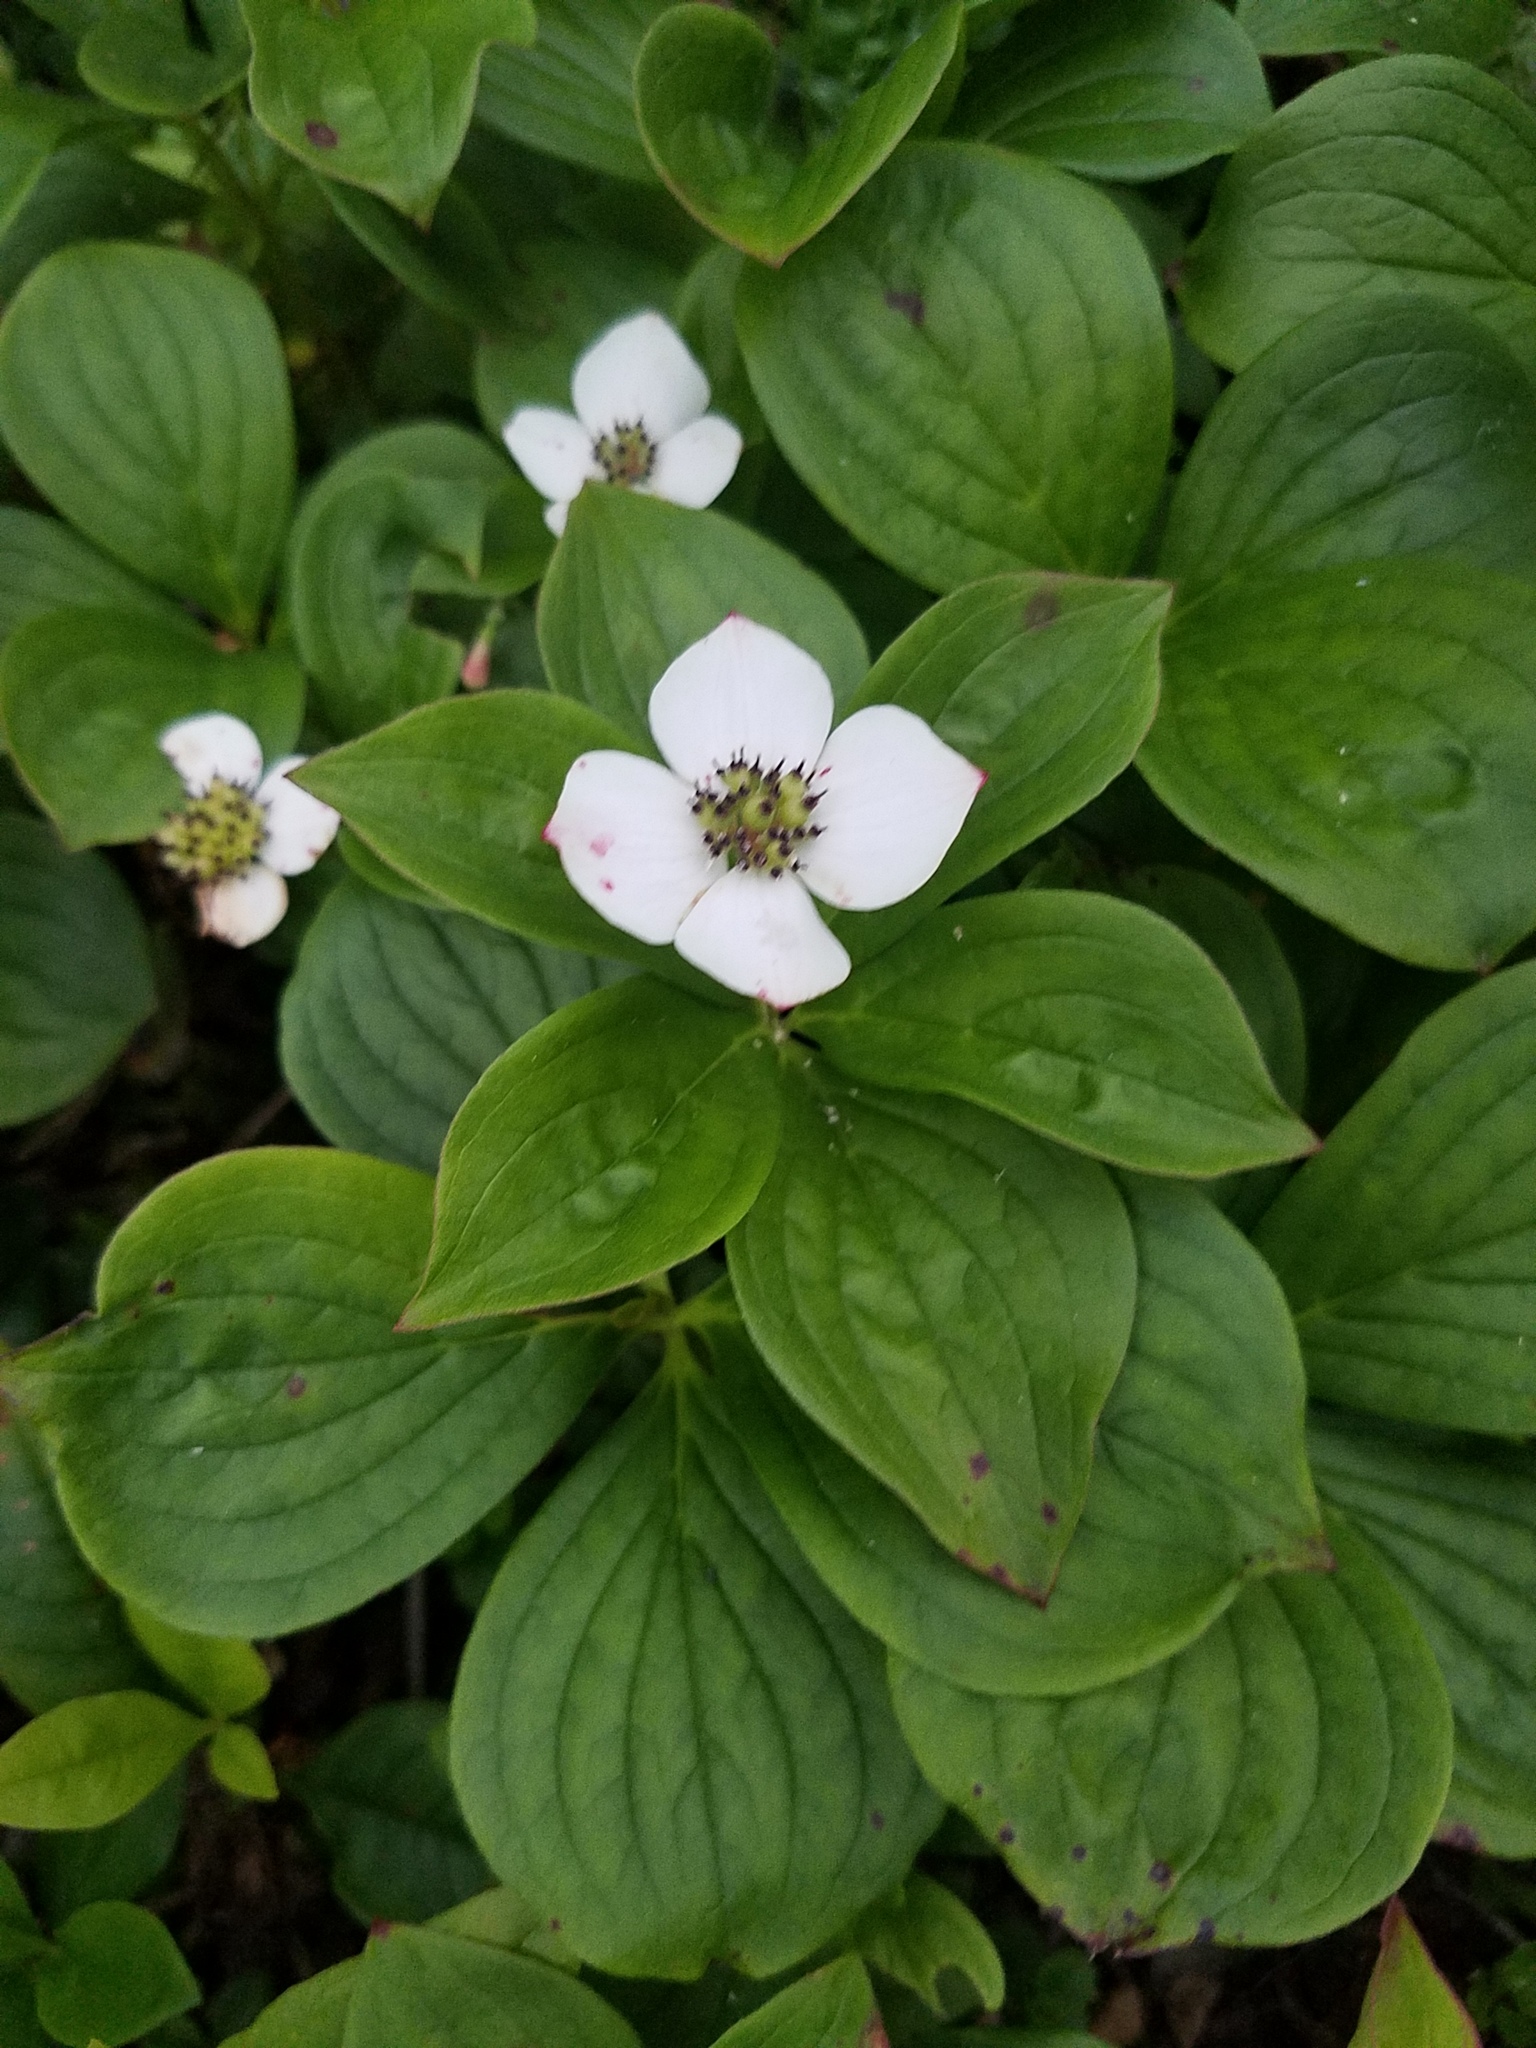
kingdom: Plantae
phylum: Tracheophyta
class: Magnoliopsida
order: Cornales
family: Cornaceae
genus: Cornus
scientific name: Cornus canadensis
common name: Creeping dogwood
